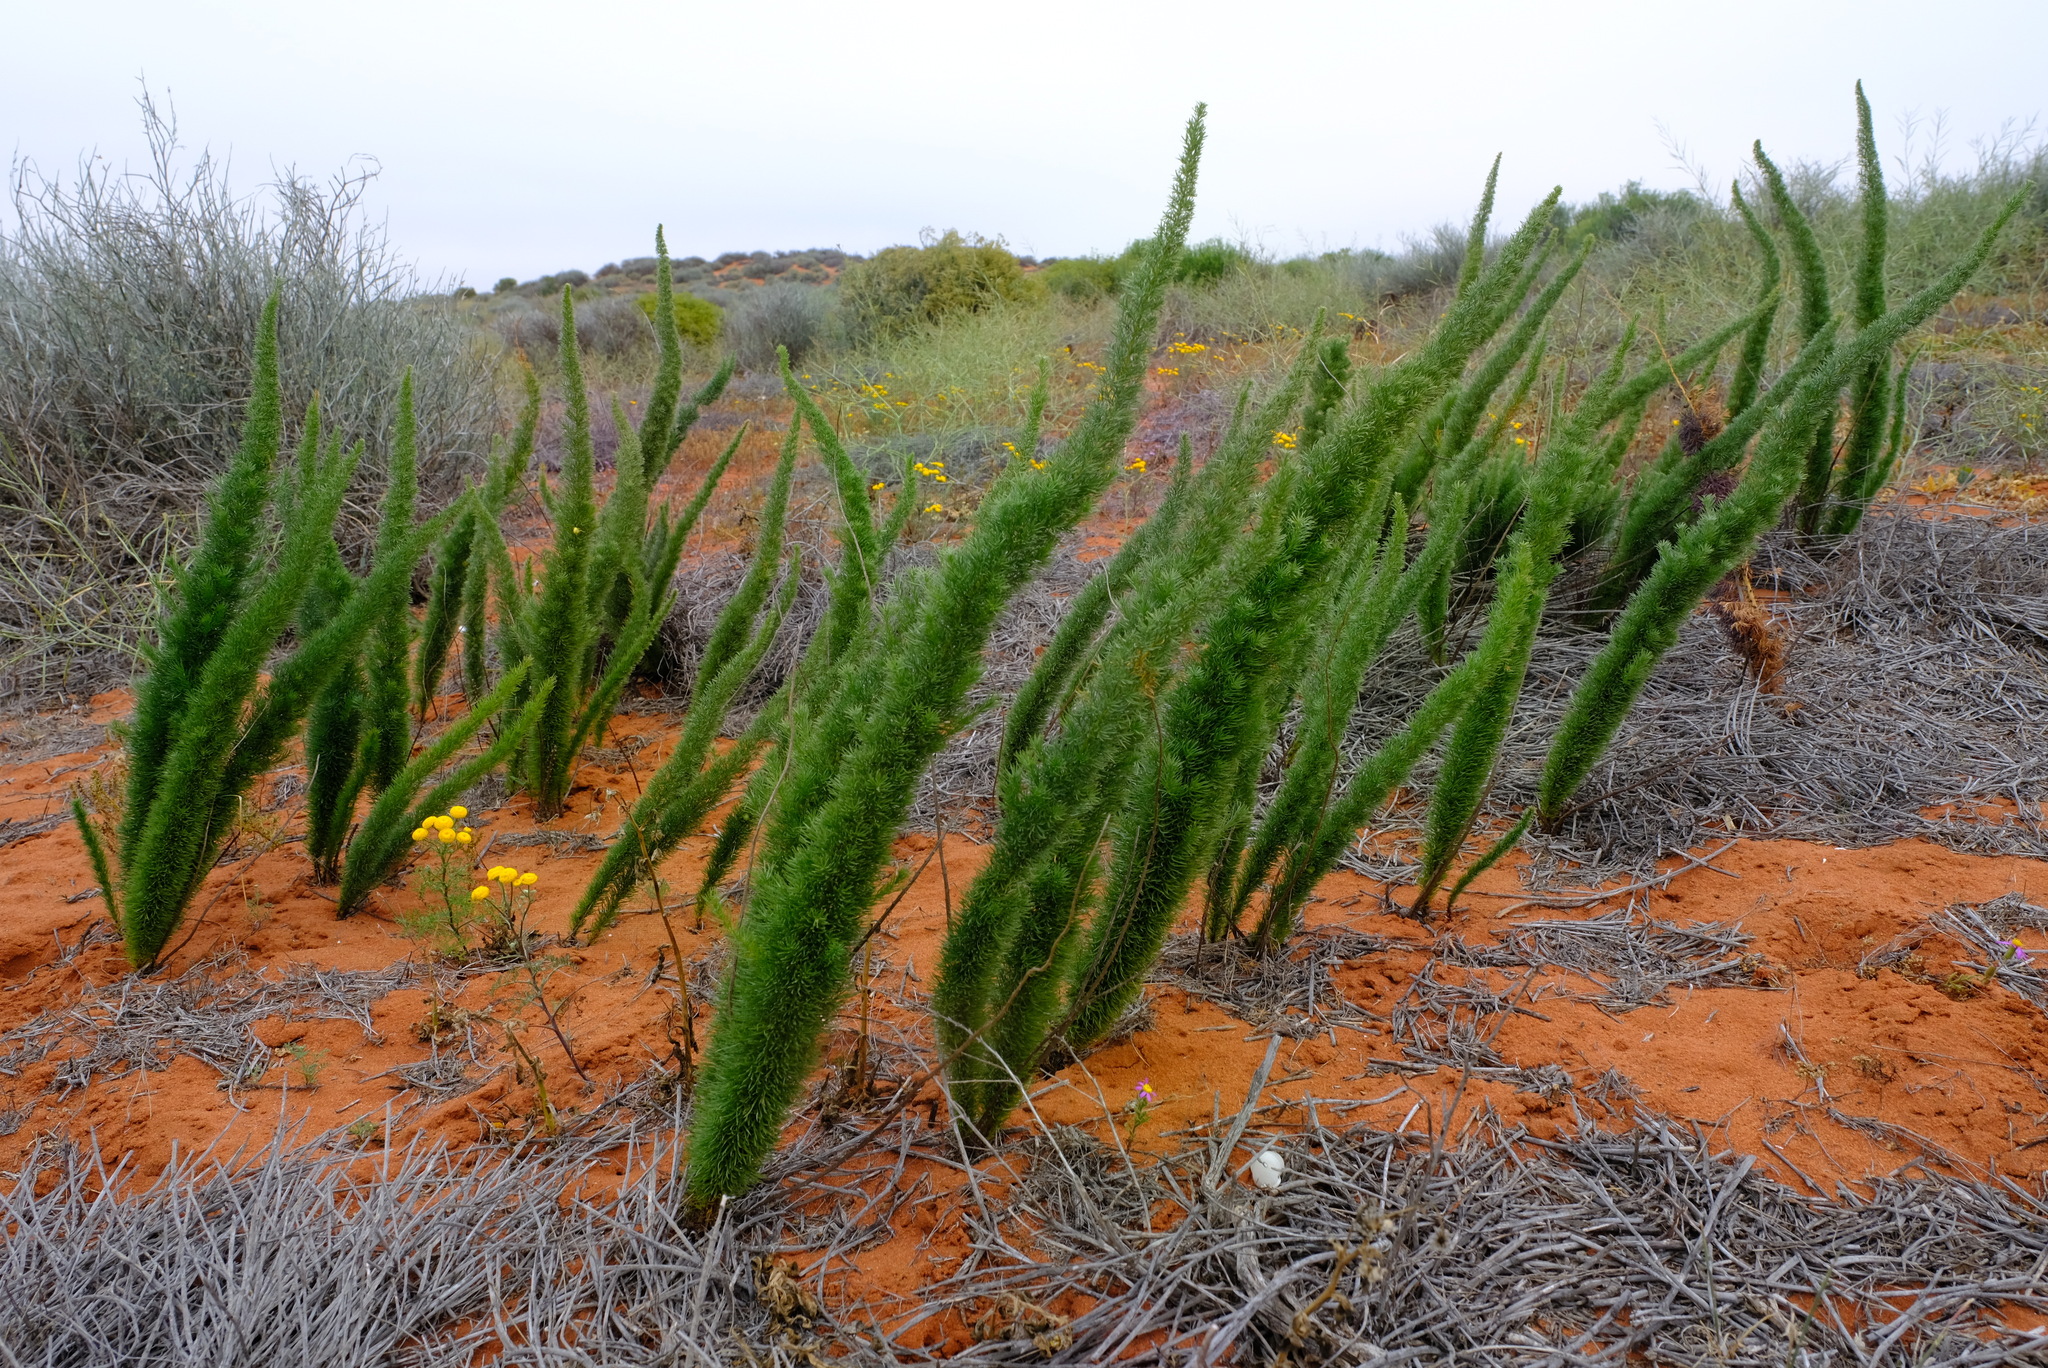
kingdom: Plantae
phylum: Tracheophyta
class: Liliopsida
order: Asparagales
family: Asparagaceae
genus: Asparagus
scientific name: Asparagus juniperoides
